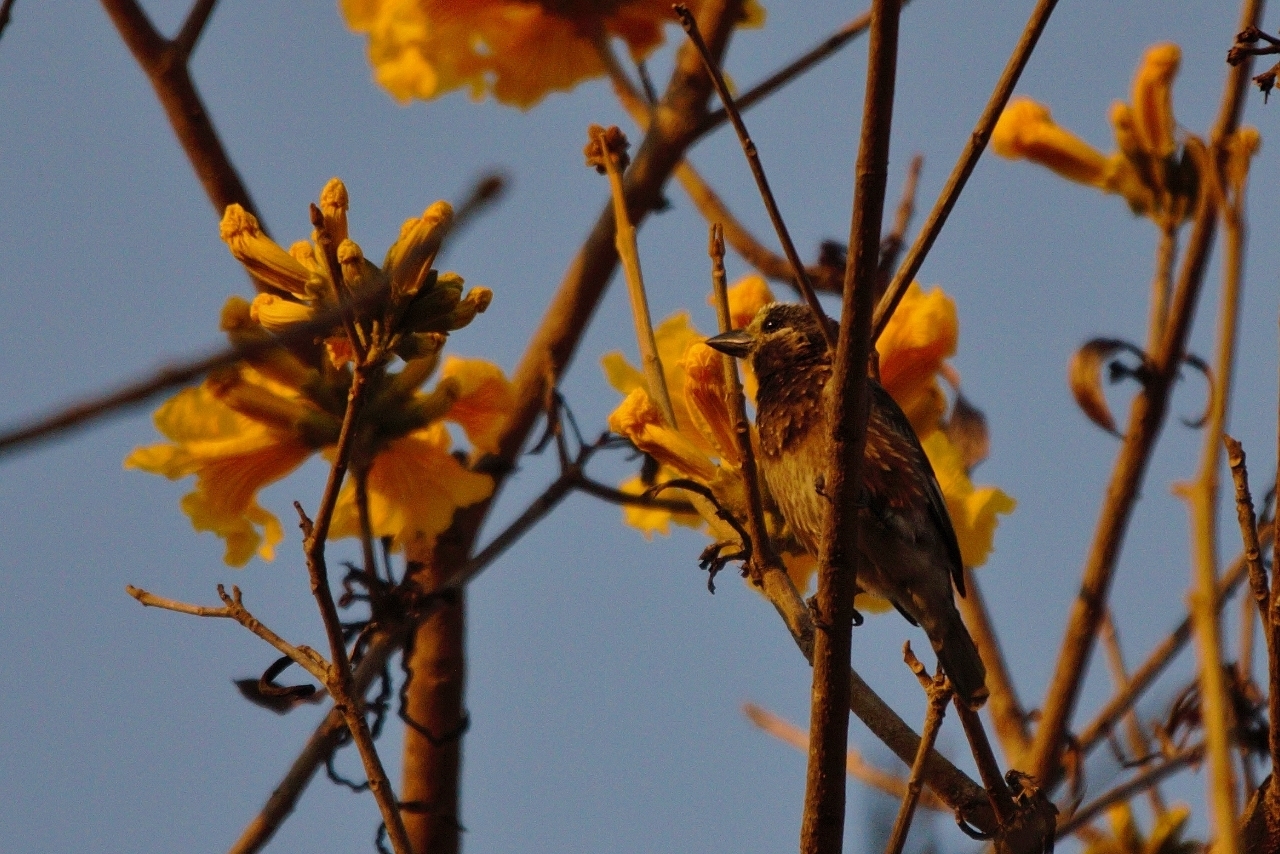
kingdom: Animalia
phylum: Chordata
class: Aves
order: Piciformes
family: Lybiidae
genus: Stactolaema
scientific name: Stactolaema whytii
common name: Whyte's barbet
